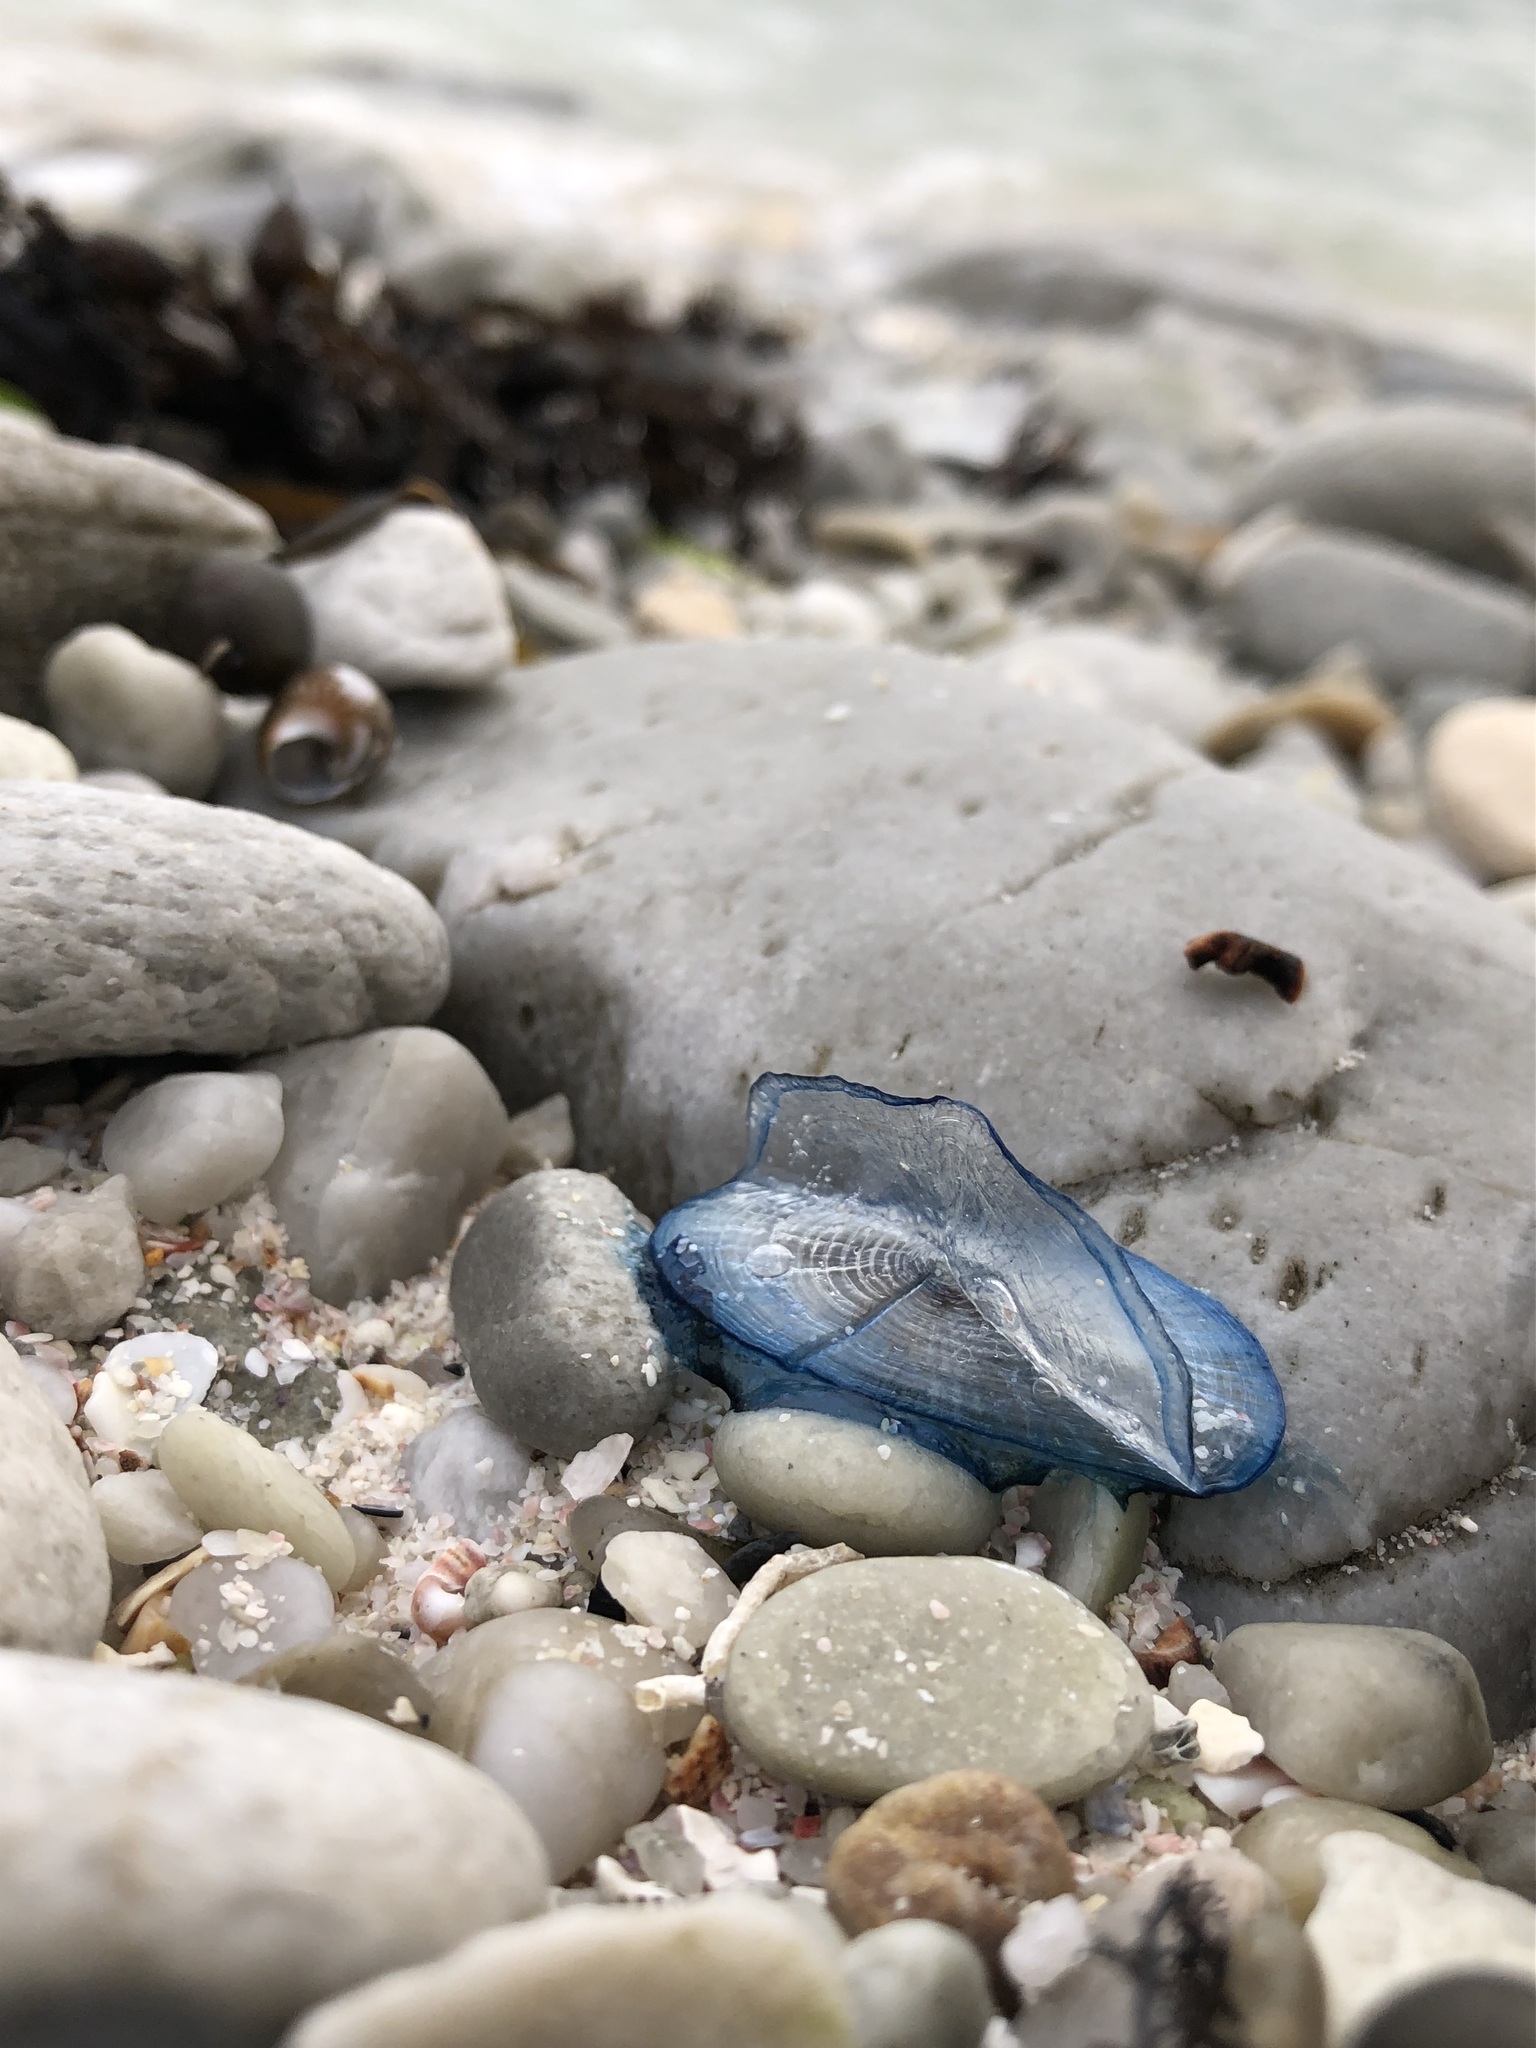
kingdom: Animalia
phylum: Cnidaria
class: Hydrozoa
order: Anthoathecata
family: Porpitidae
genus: Velella
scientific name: Velella velella
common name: By-the-wind-sailor
